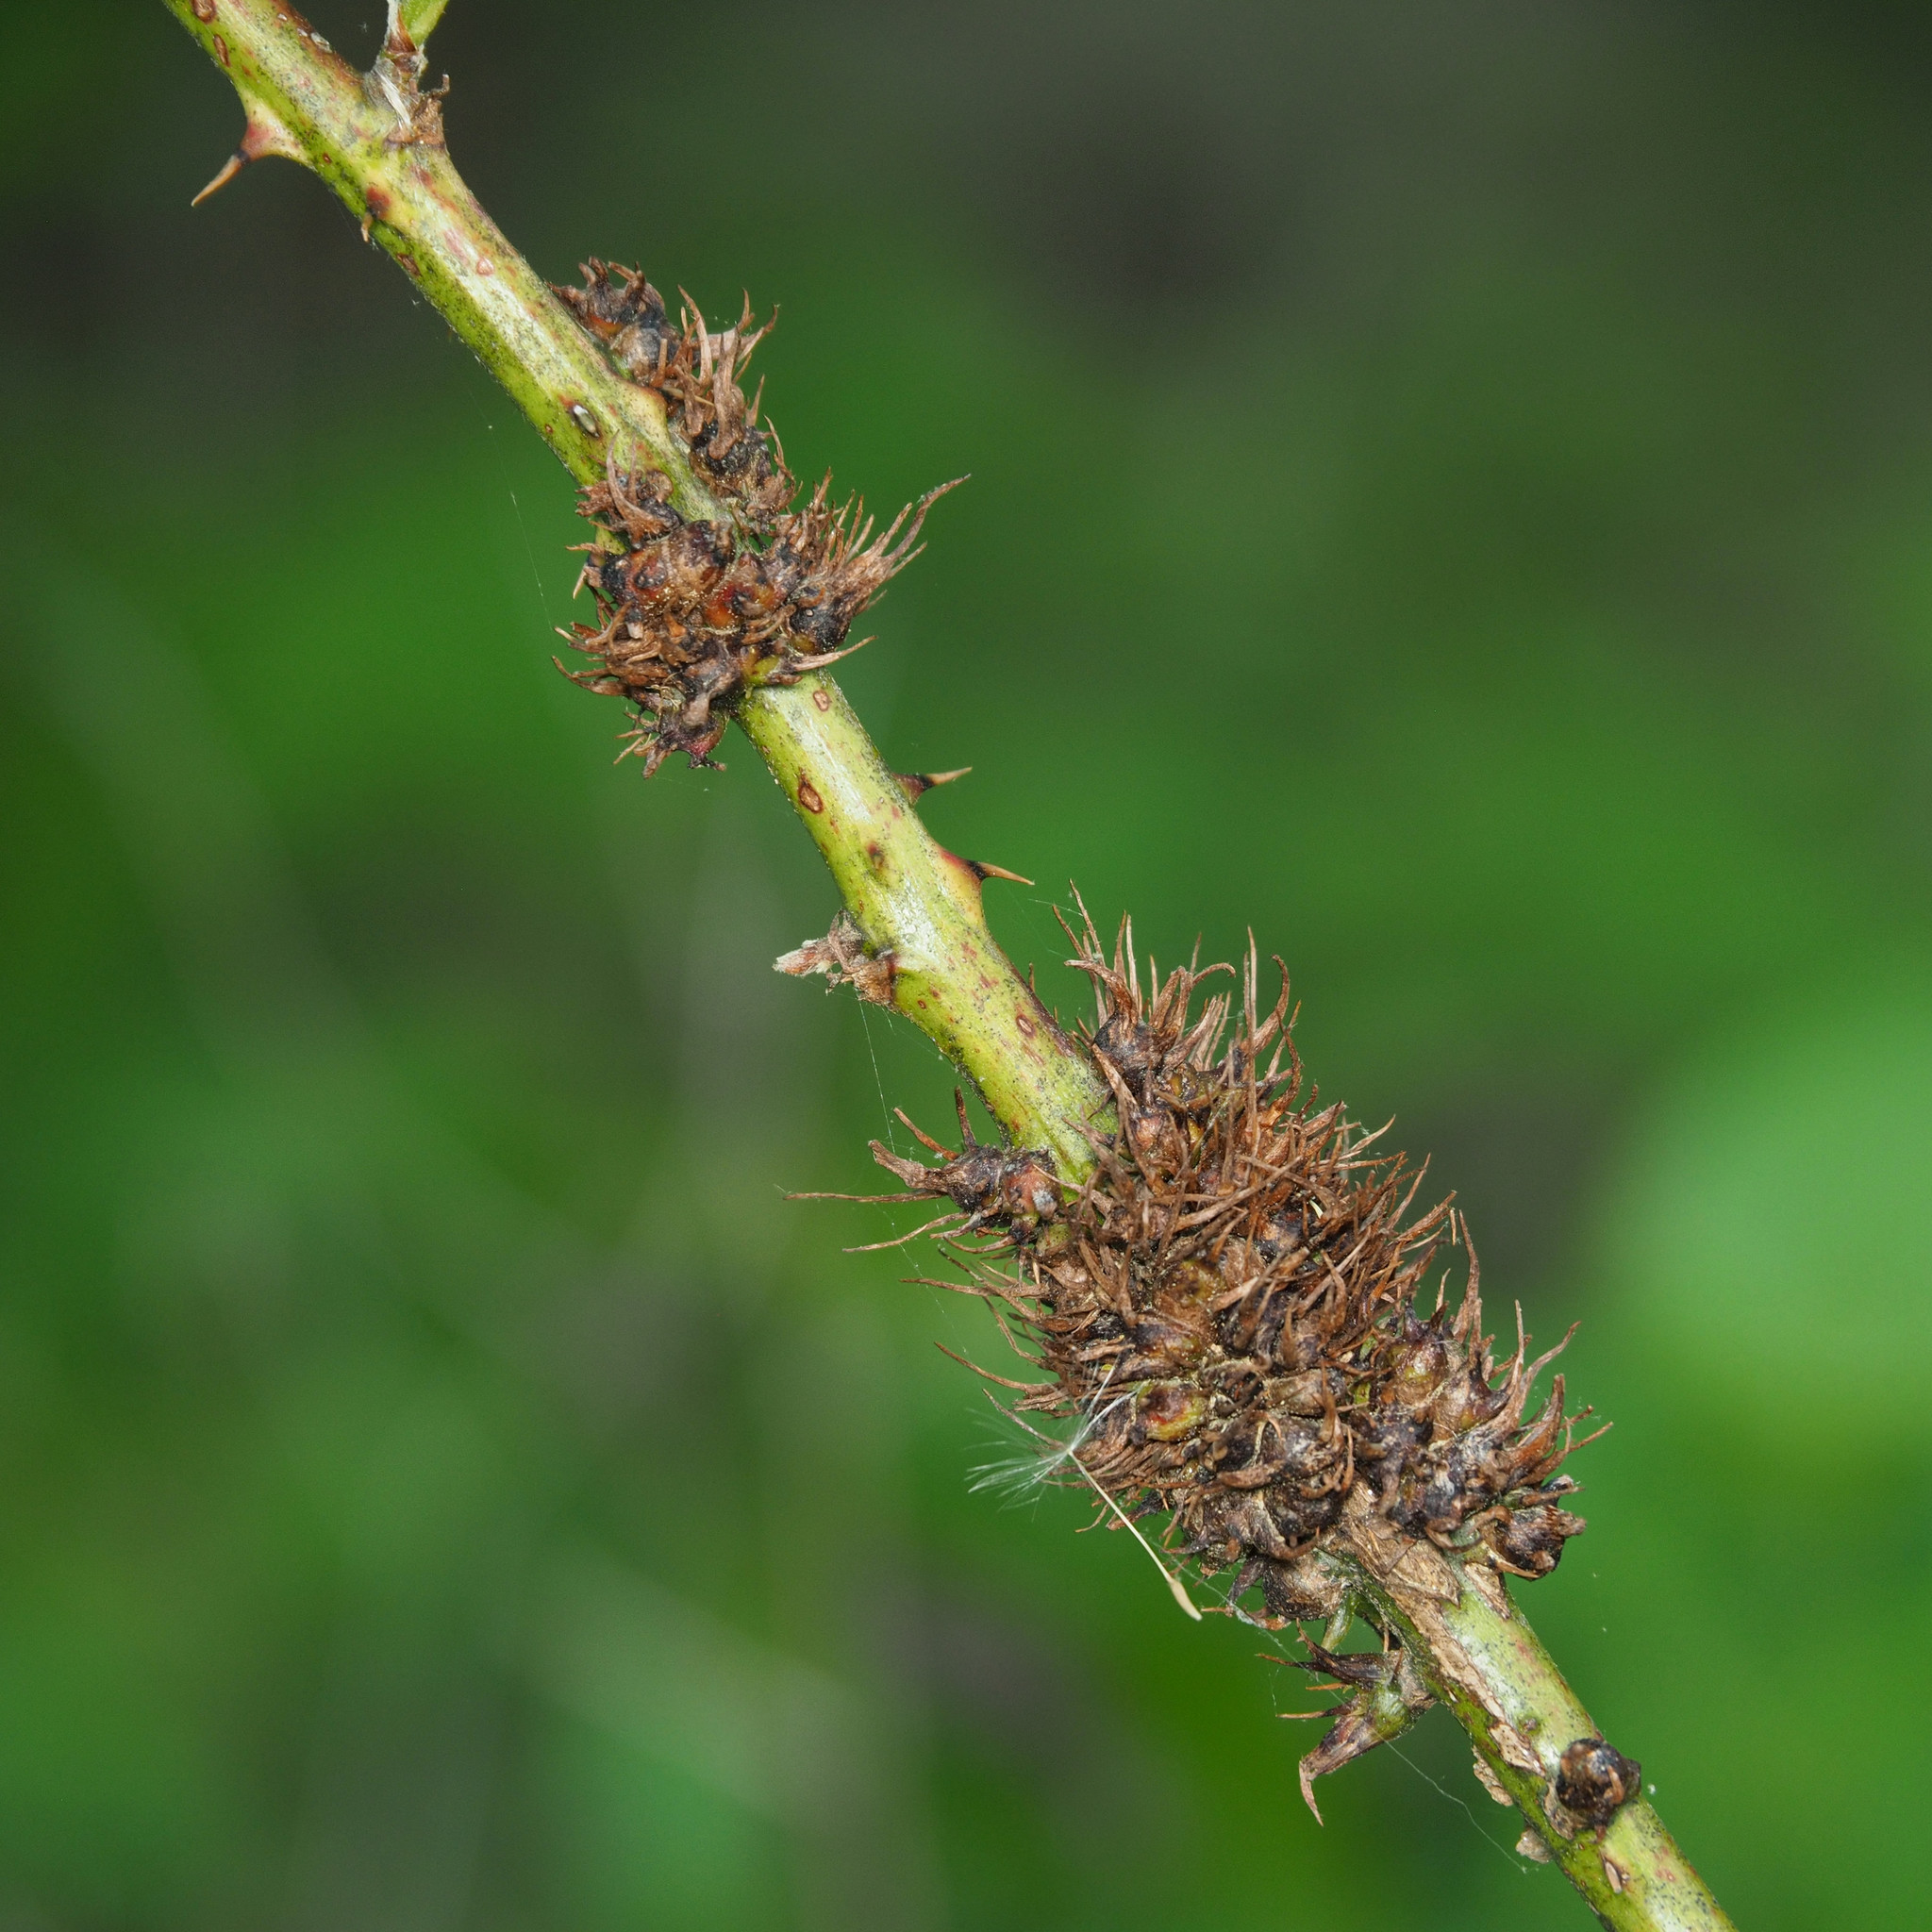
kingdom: Animalia
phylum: Arthropoda
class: Insecta
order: Hymenoptera
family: Cynipidae
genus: Diastrophus
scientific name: Diastrophus
